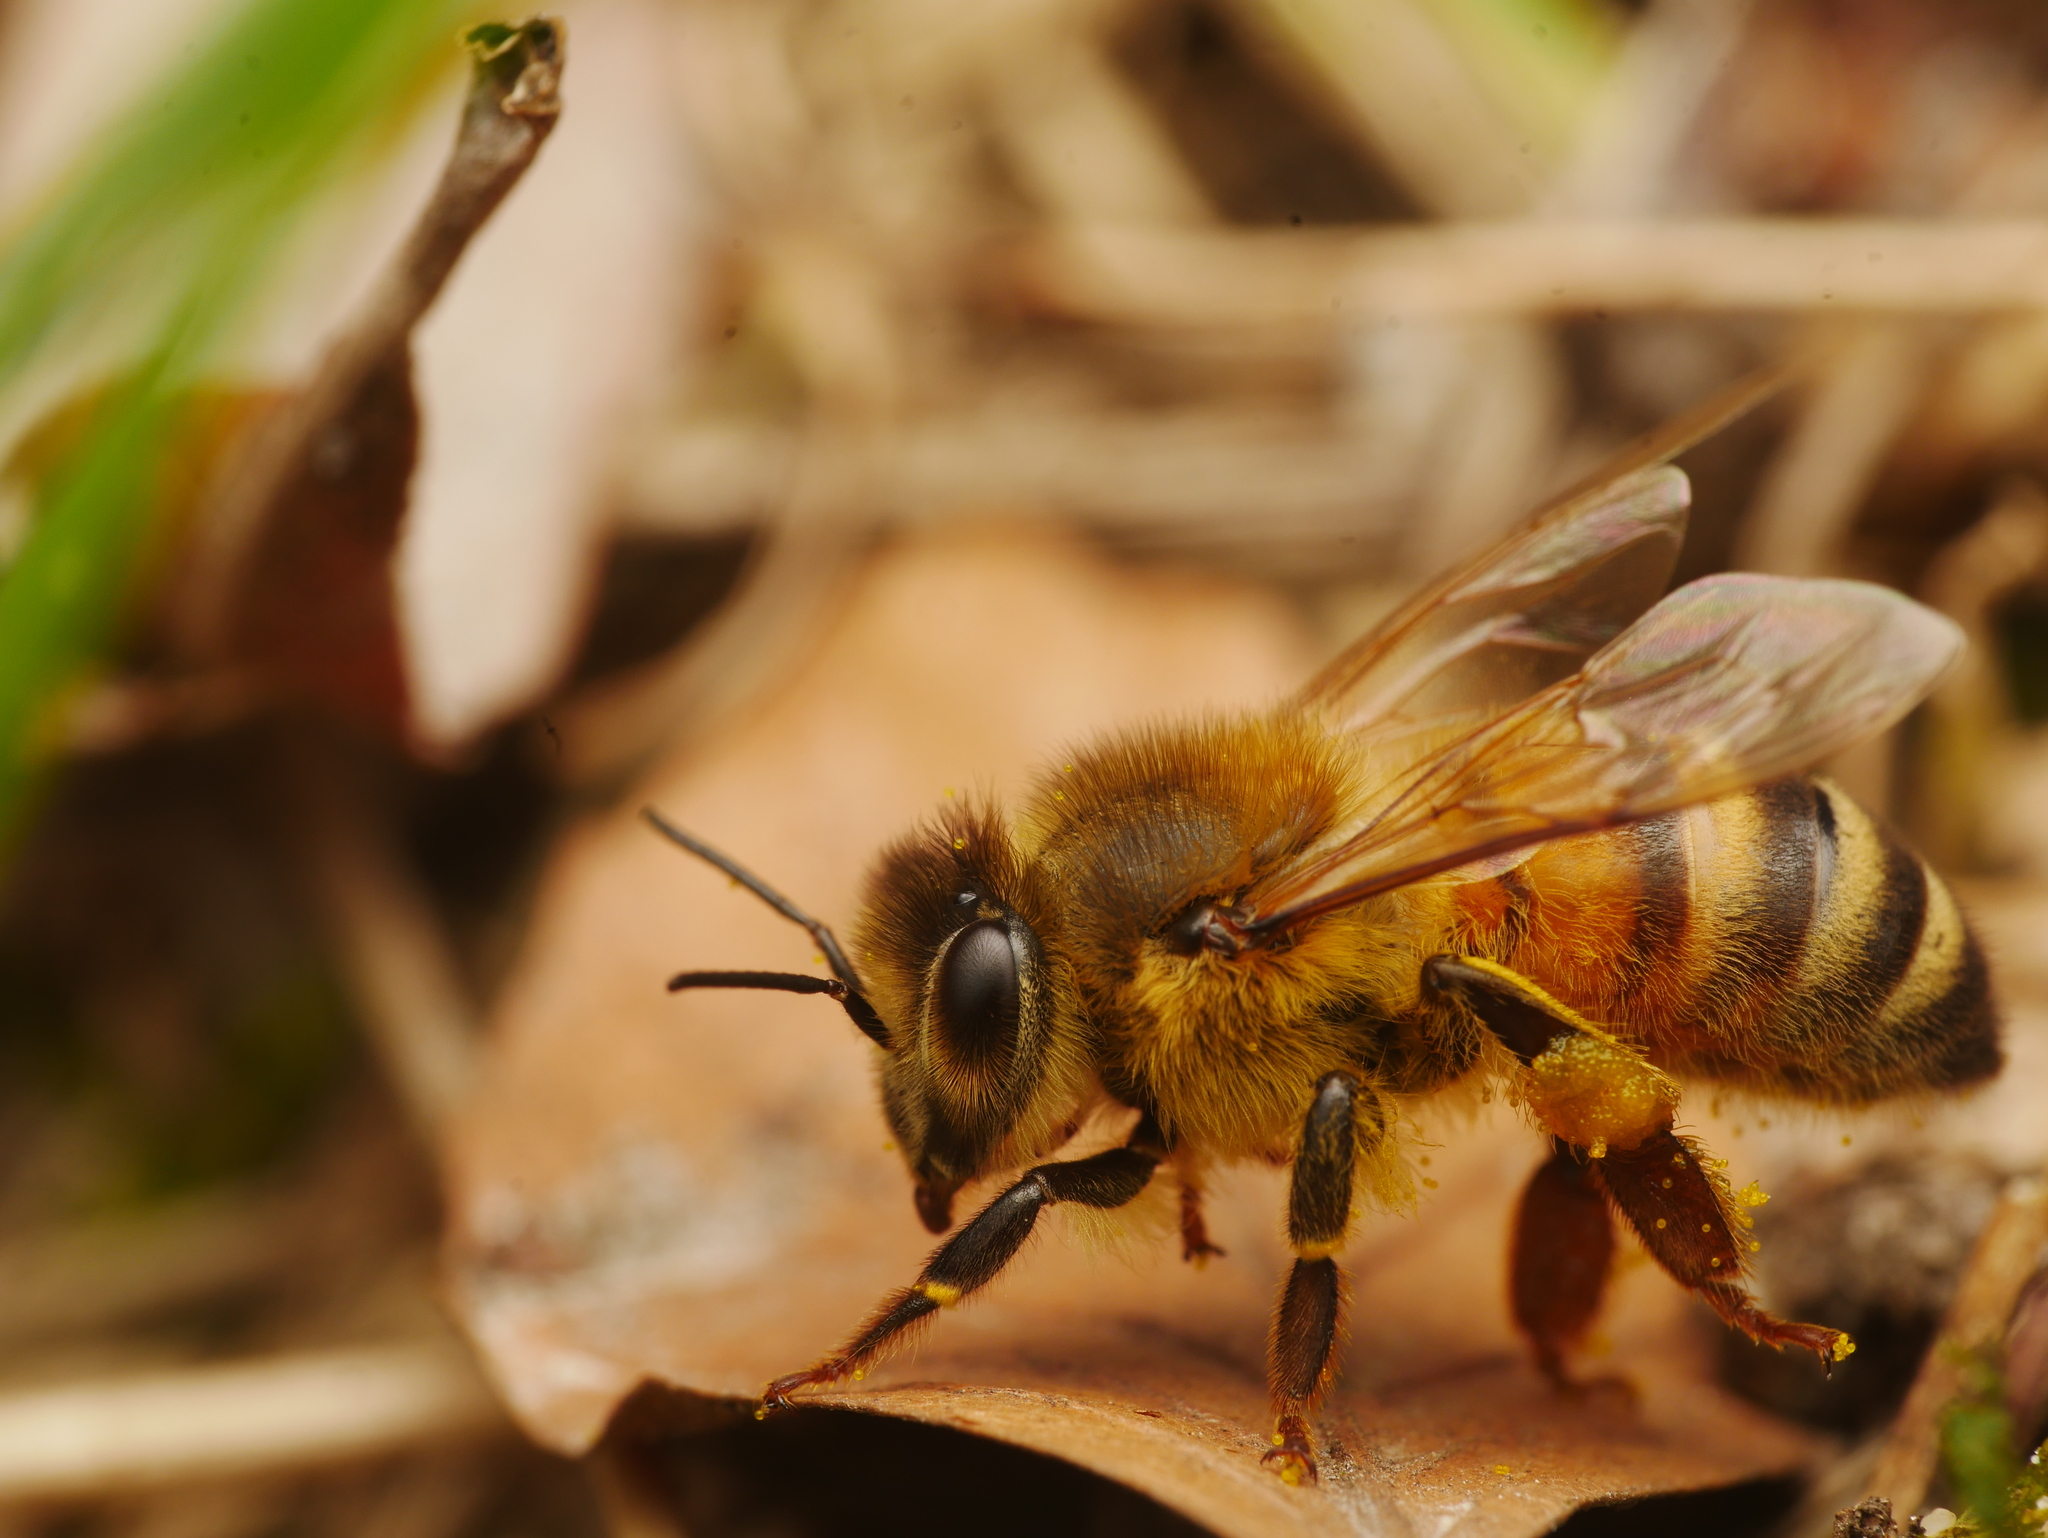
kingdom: Animalia
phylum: Arthropoda
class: Insecta
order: Hymenoptera
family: Apidae
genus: Apis
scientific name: Apis mellifera
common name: Honey bee
